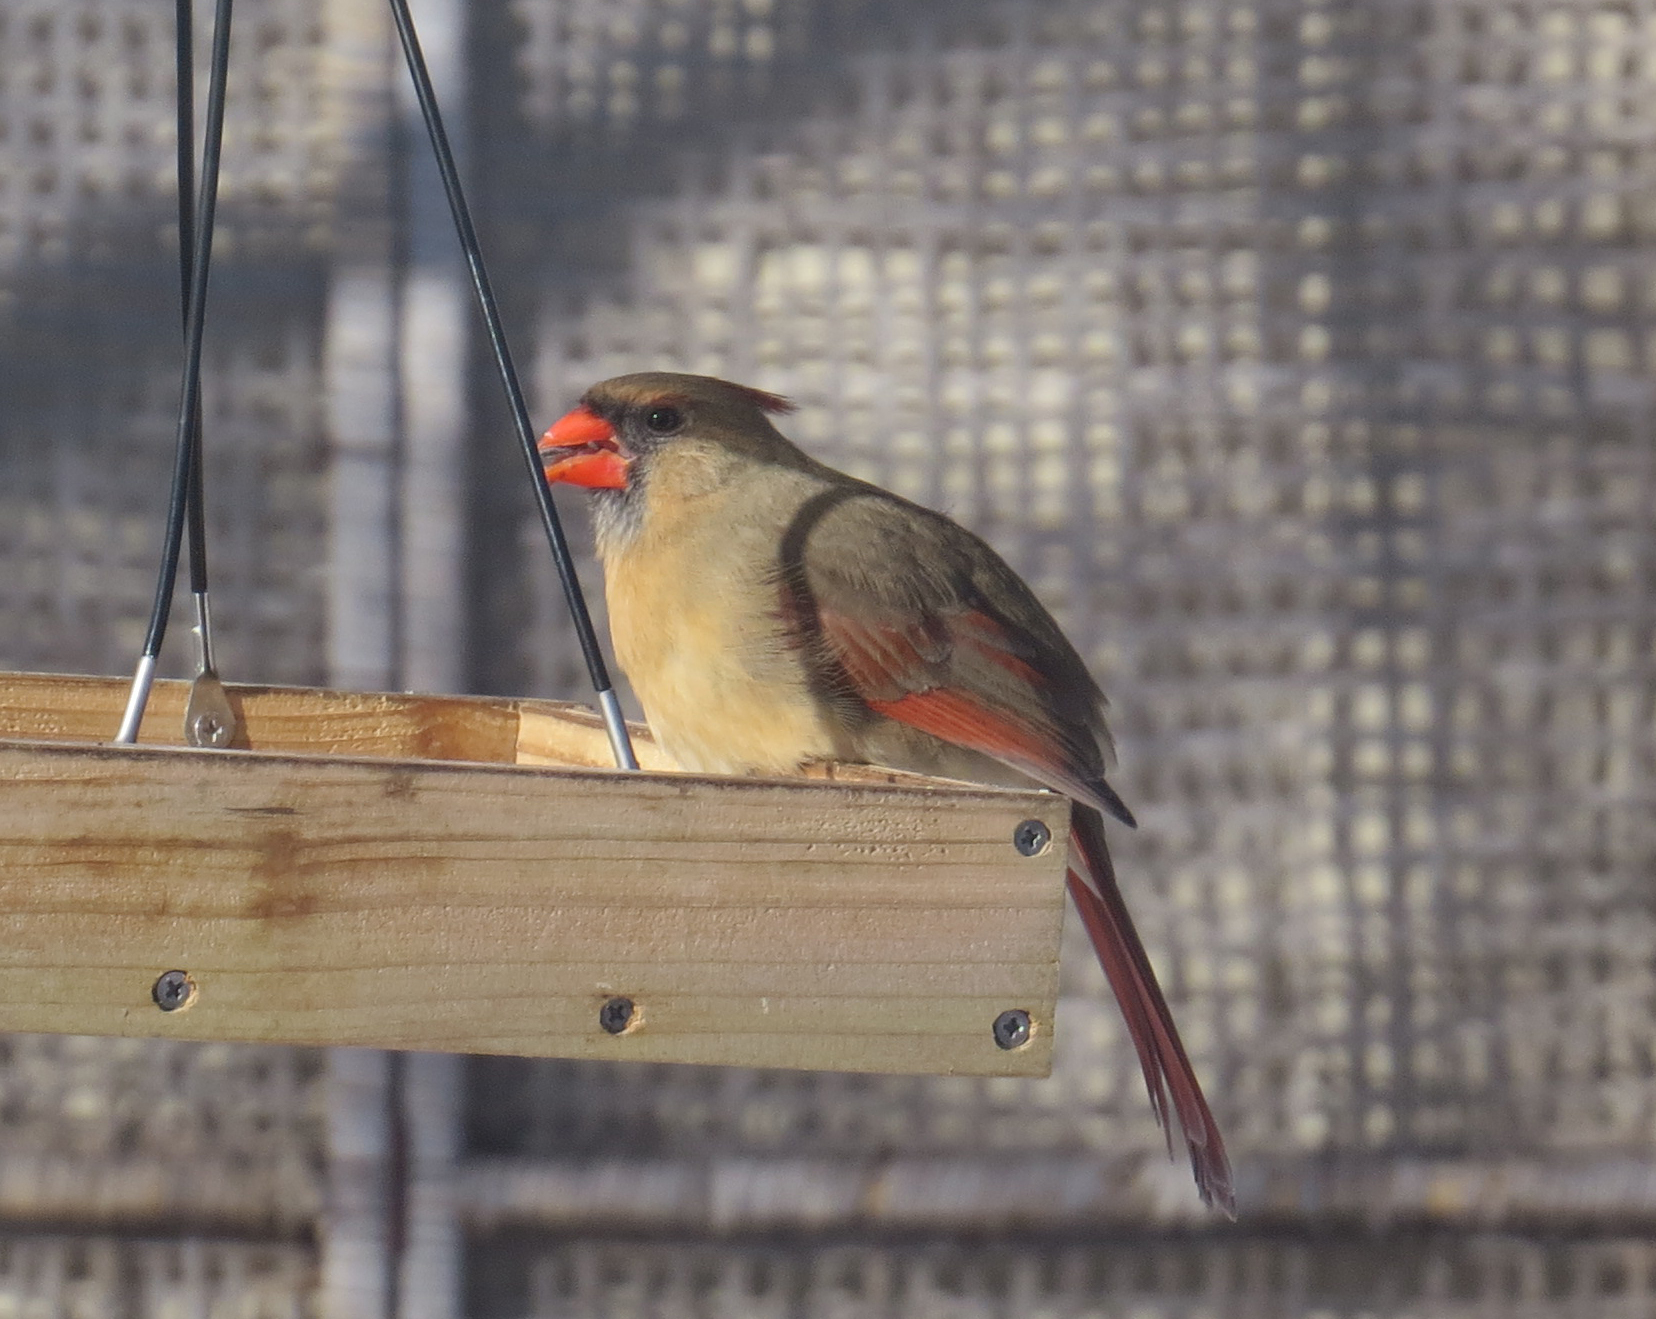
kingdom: Animalia
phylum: Chordata
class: Aves
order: Passeriformes
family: Cardinalidae
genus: Cardinalis
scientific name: Cardinalis cardinalis
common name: Northern cardinal
